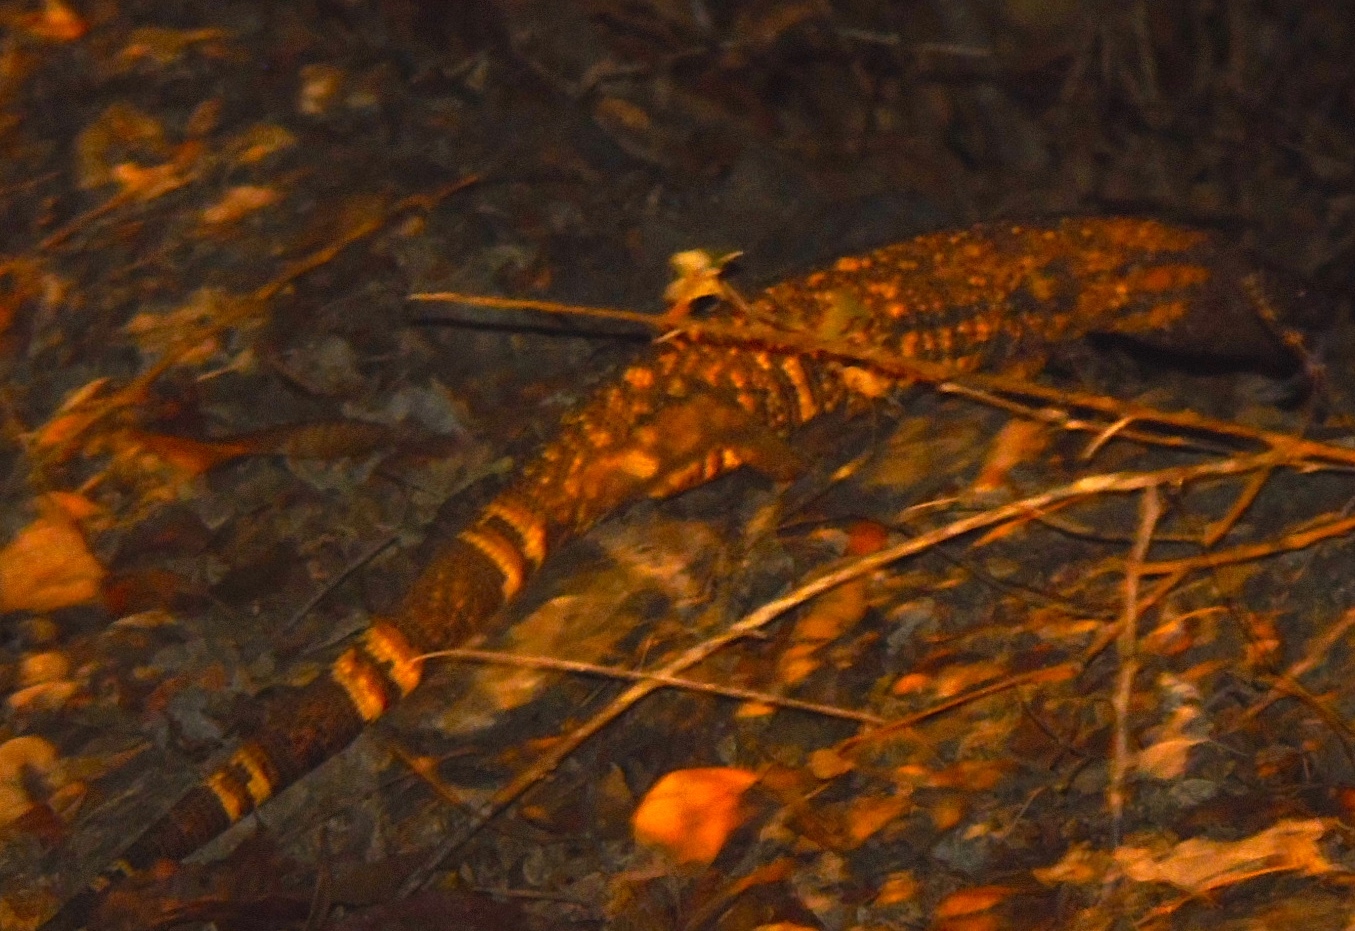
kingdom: Animalia
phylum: Chordata
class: Squamata
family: Helodermatidae
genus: Heloderma
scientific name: Heloderma horridum
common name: Mexican beaded lizard
